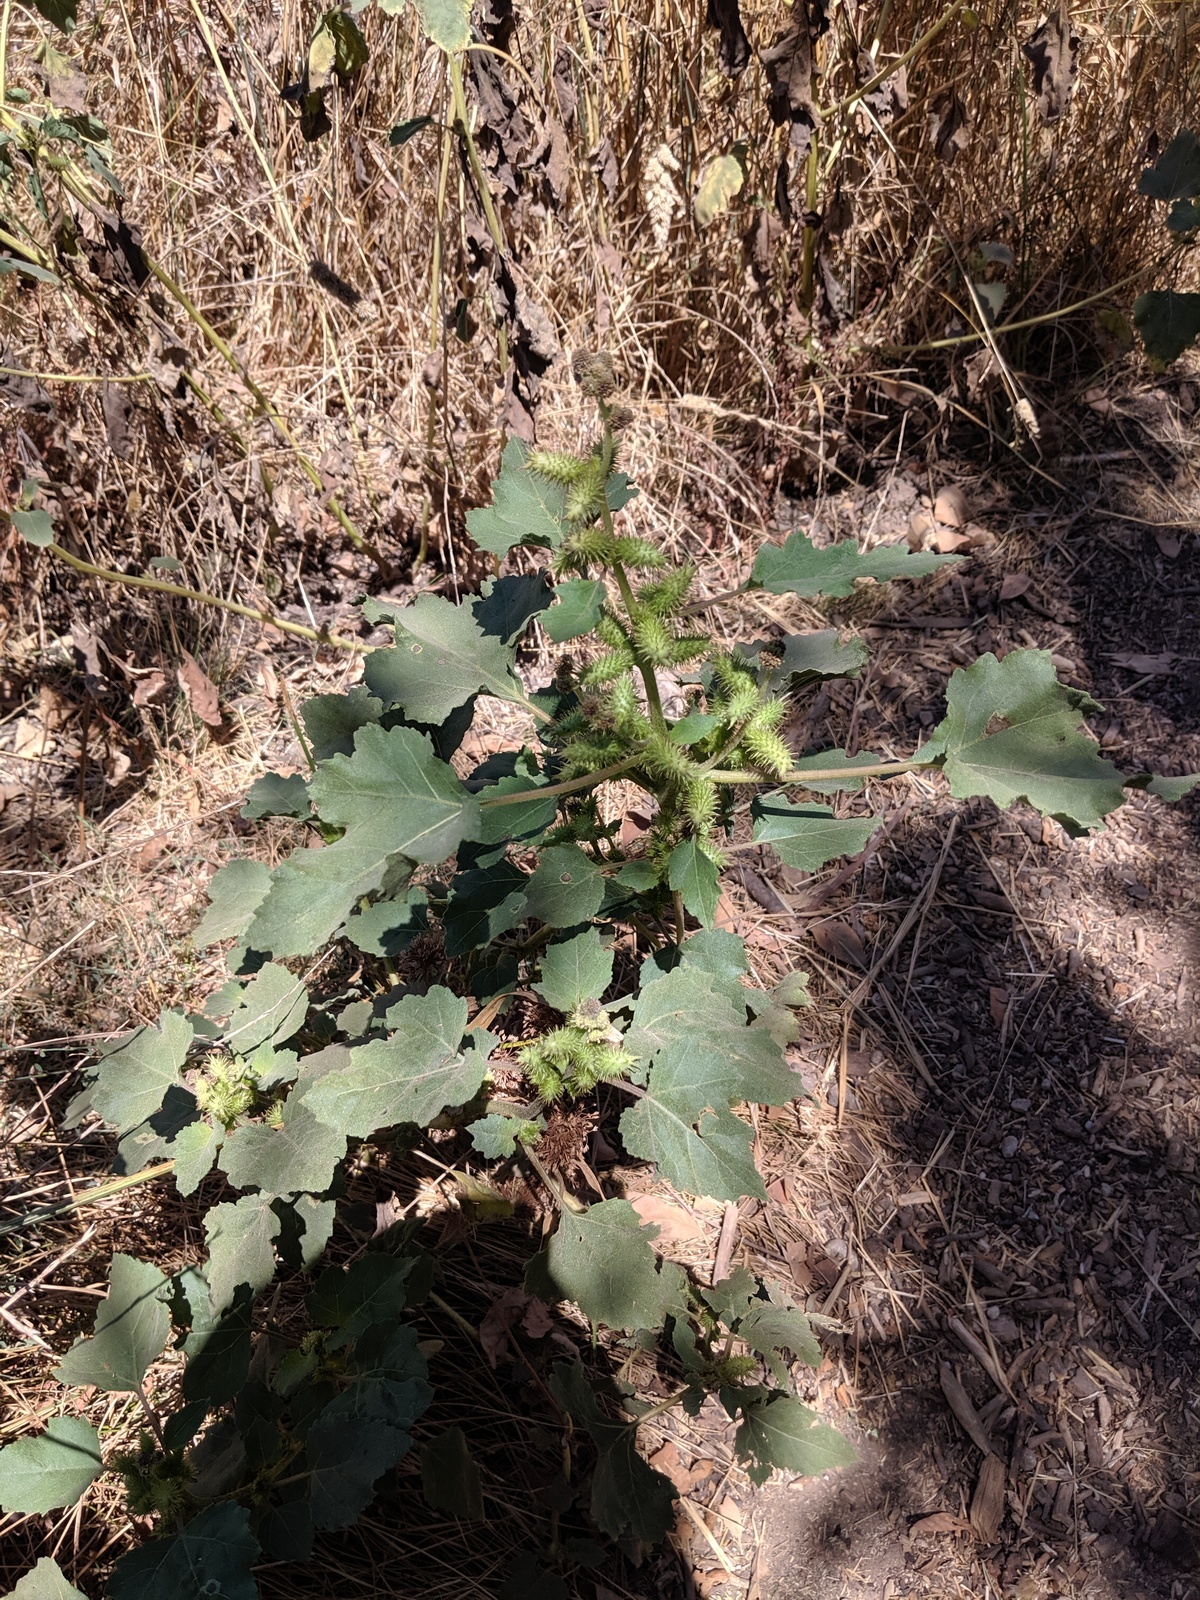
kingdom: Plantae
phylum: Tracheophyta
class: Magnoliopsida
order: Asterales
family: Asteraceae
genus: Xanthium
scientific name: Xanthium strumarium
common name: Rough cocklebur
